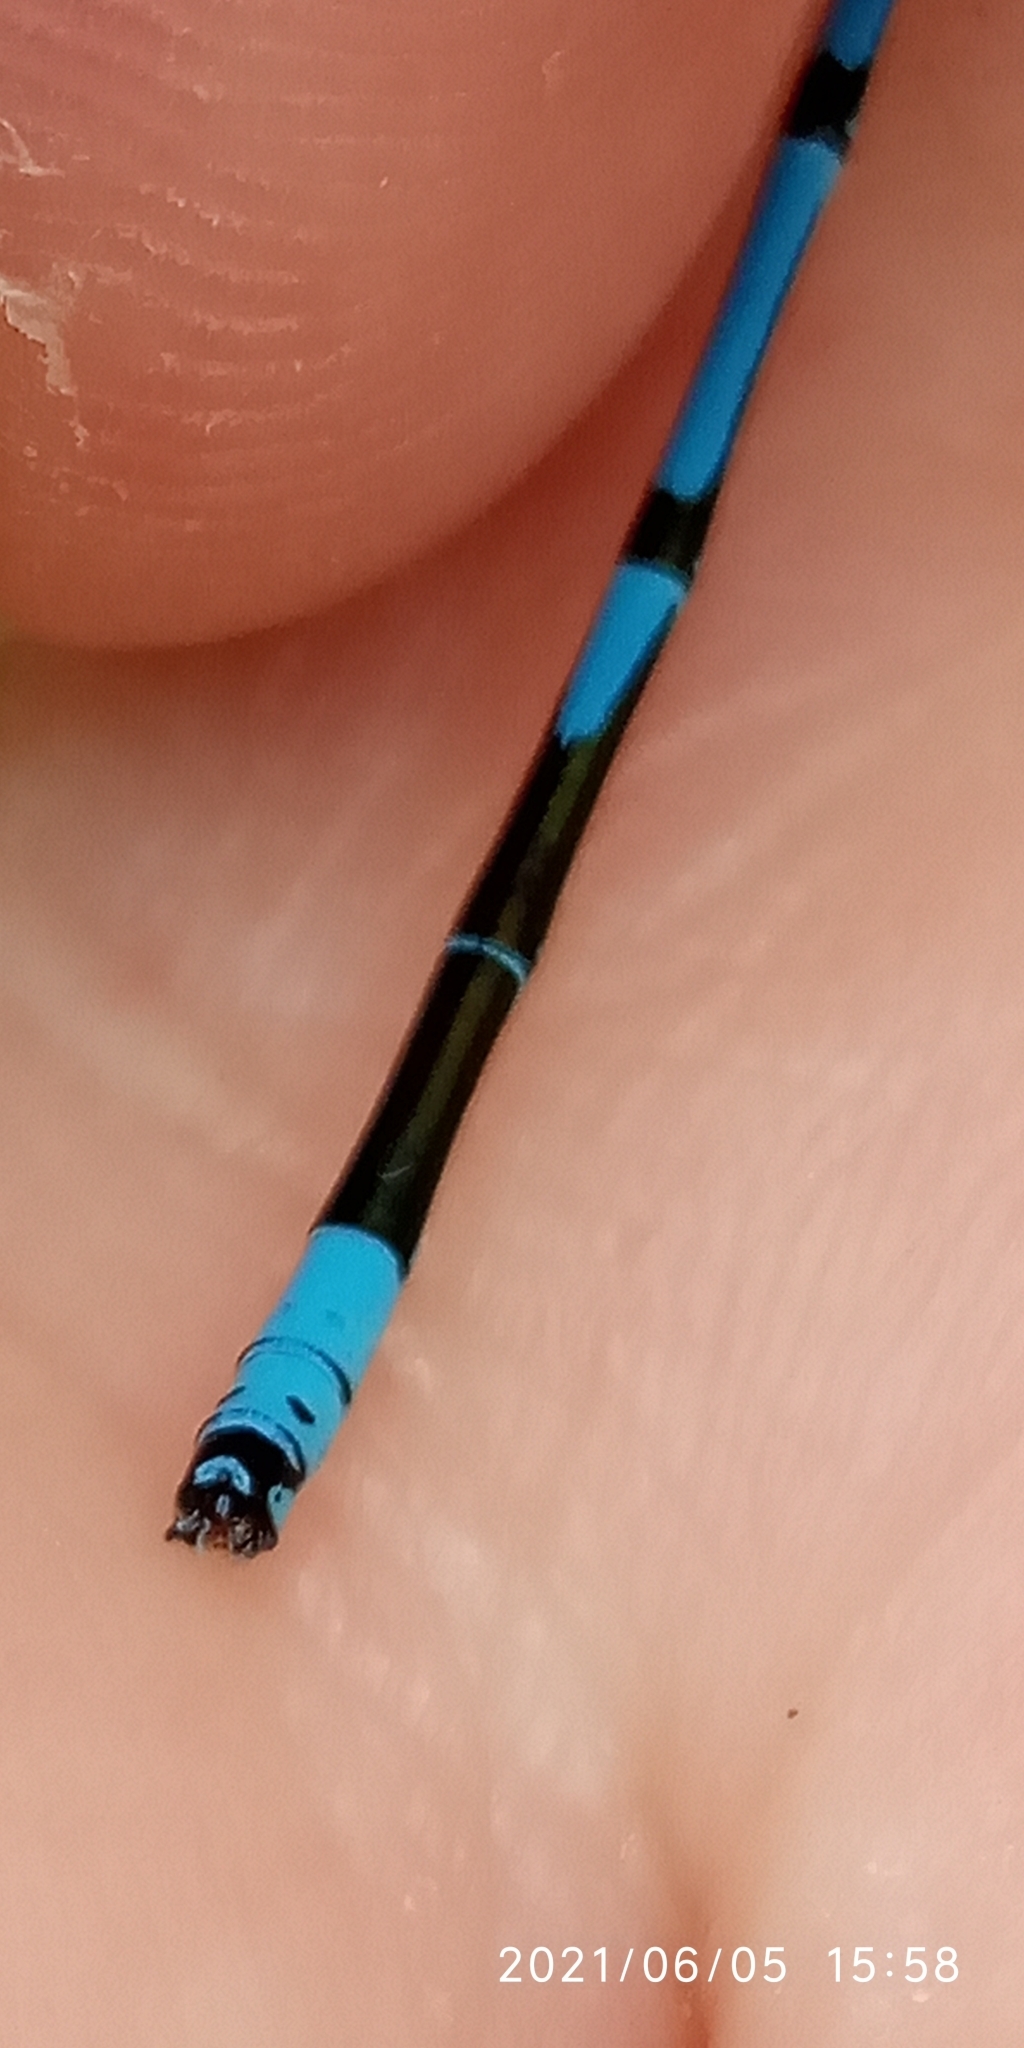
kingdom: Animalia
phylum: Arthropoda
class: Insecta
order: Odonata
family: Coenagrionidae
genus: Coenagrion
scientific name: Coenagrion puella
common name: Azure damselfly
